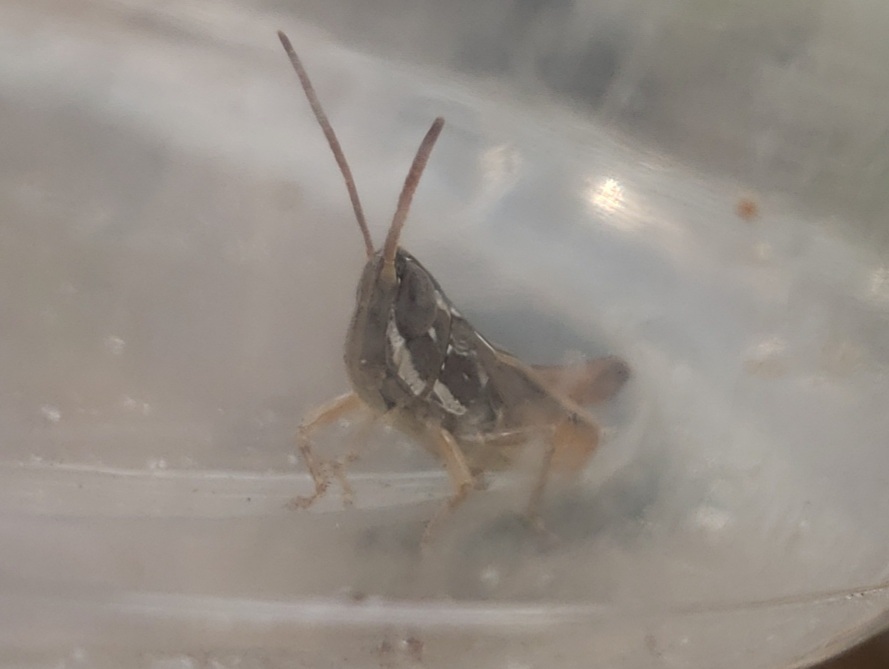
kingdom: Animalia
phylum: Arthropoda
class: Insecta
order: Orthoptera
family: Acrididae
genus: Eritettix
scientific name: Eritettix obscurus
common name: Obscure slant-faced grasshopper
